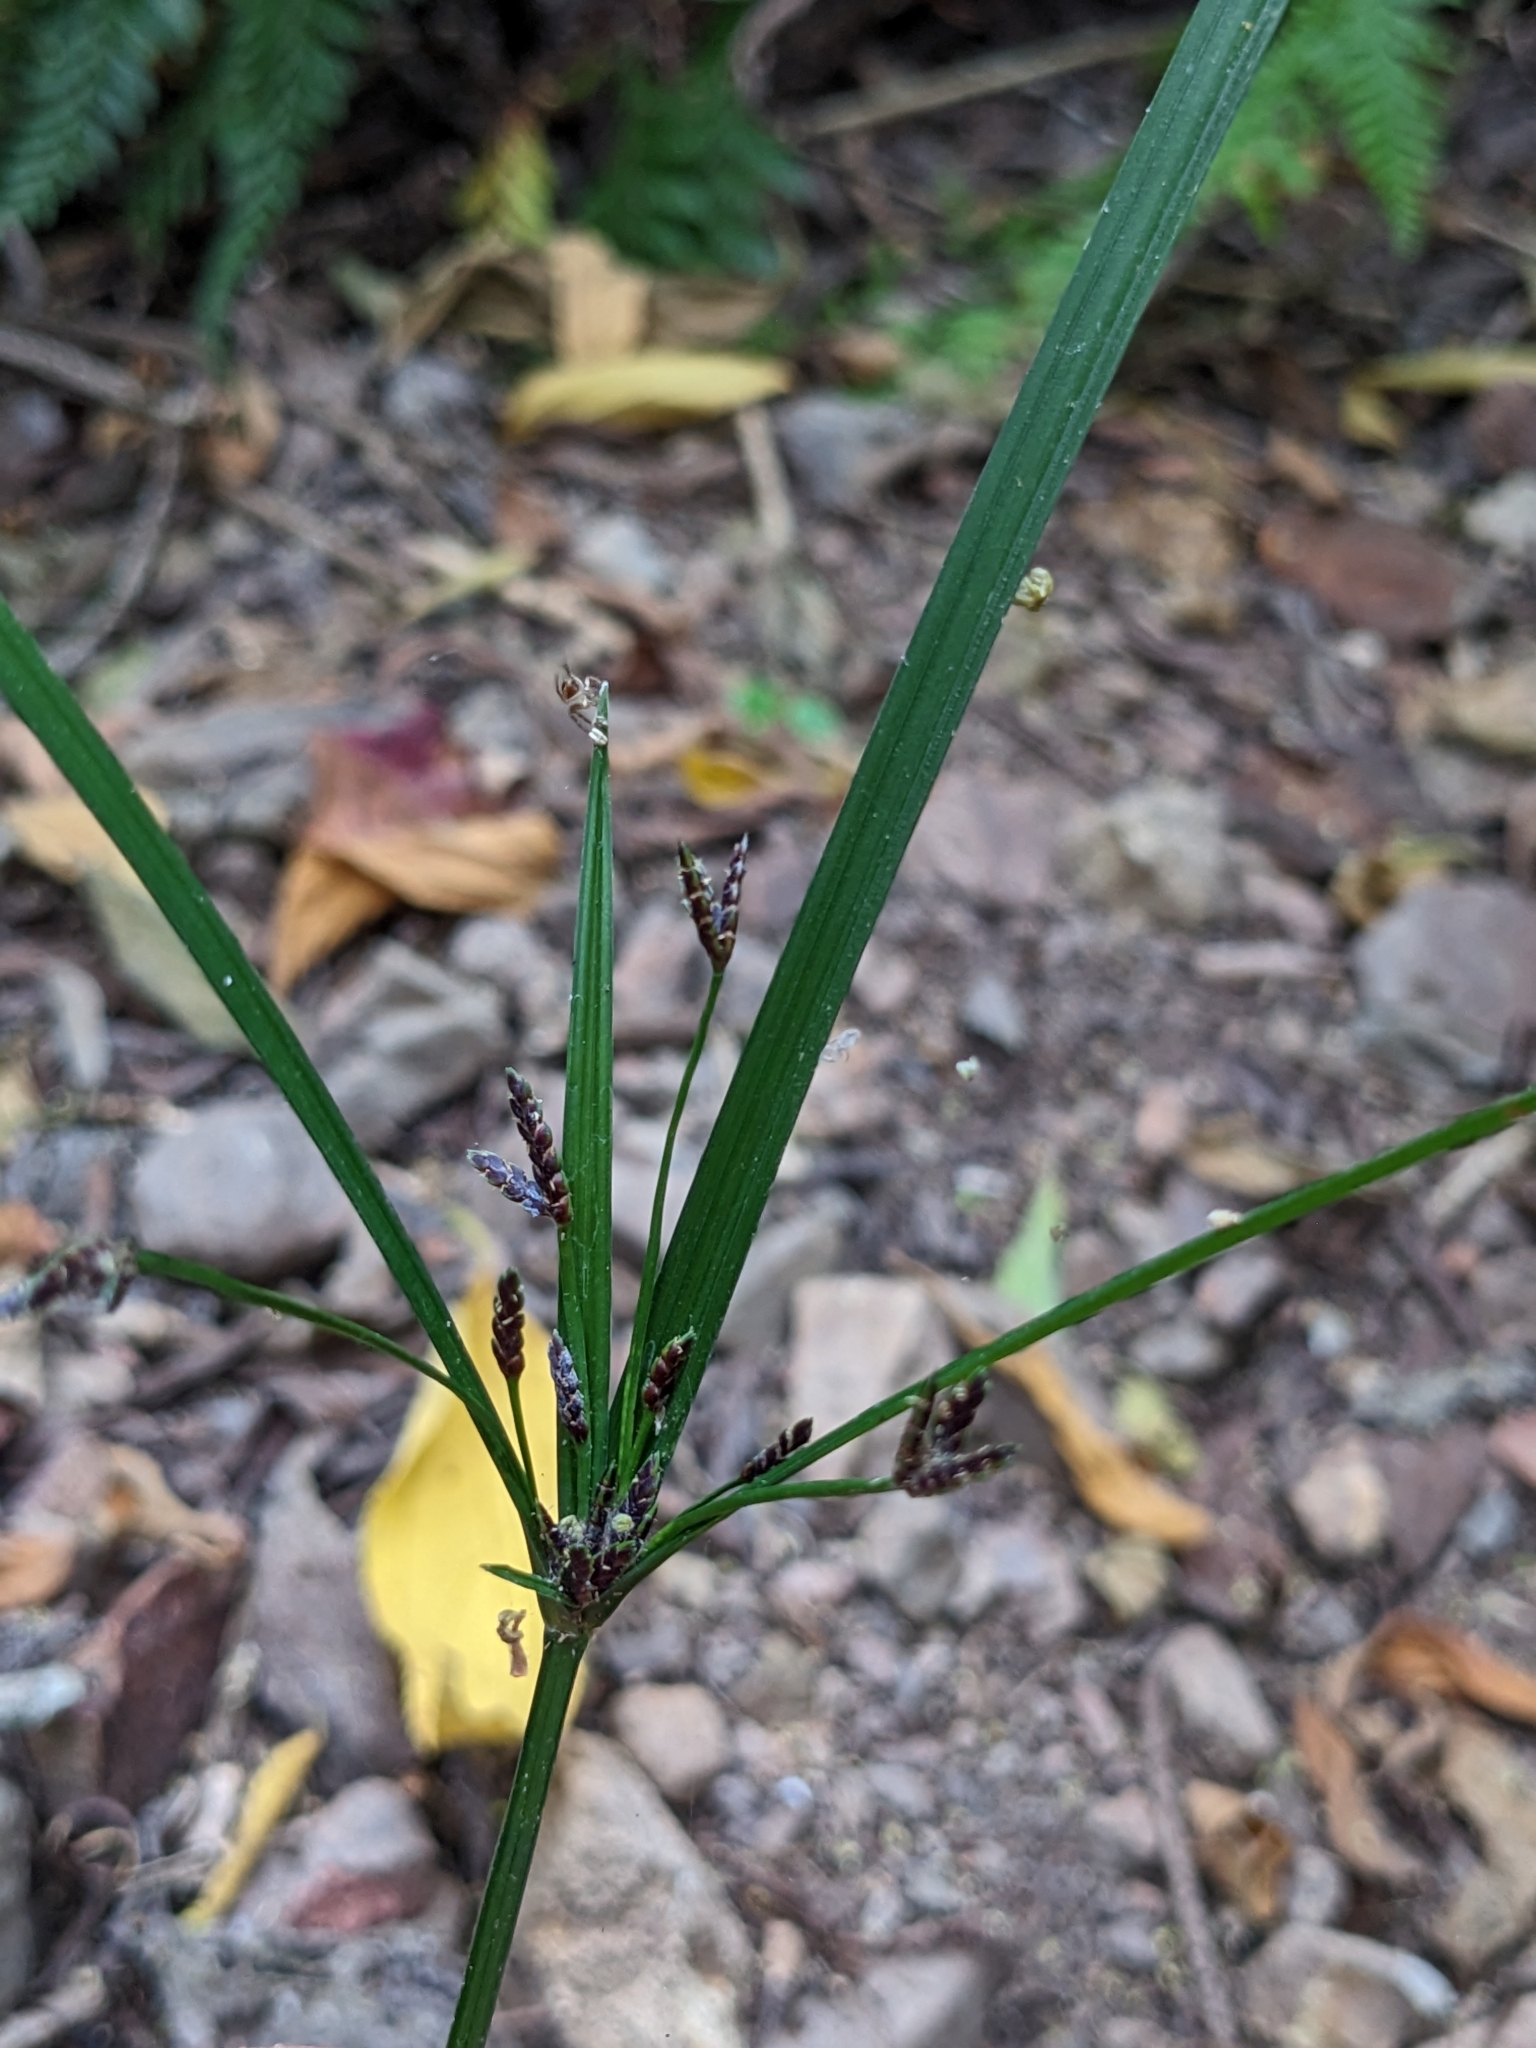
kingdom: Plantae
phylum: Tracheophyta
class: Liliopsida
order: Poales
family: Cyperaceae
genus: Cyperus
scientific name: Cyperus tetraphyllus
